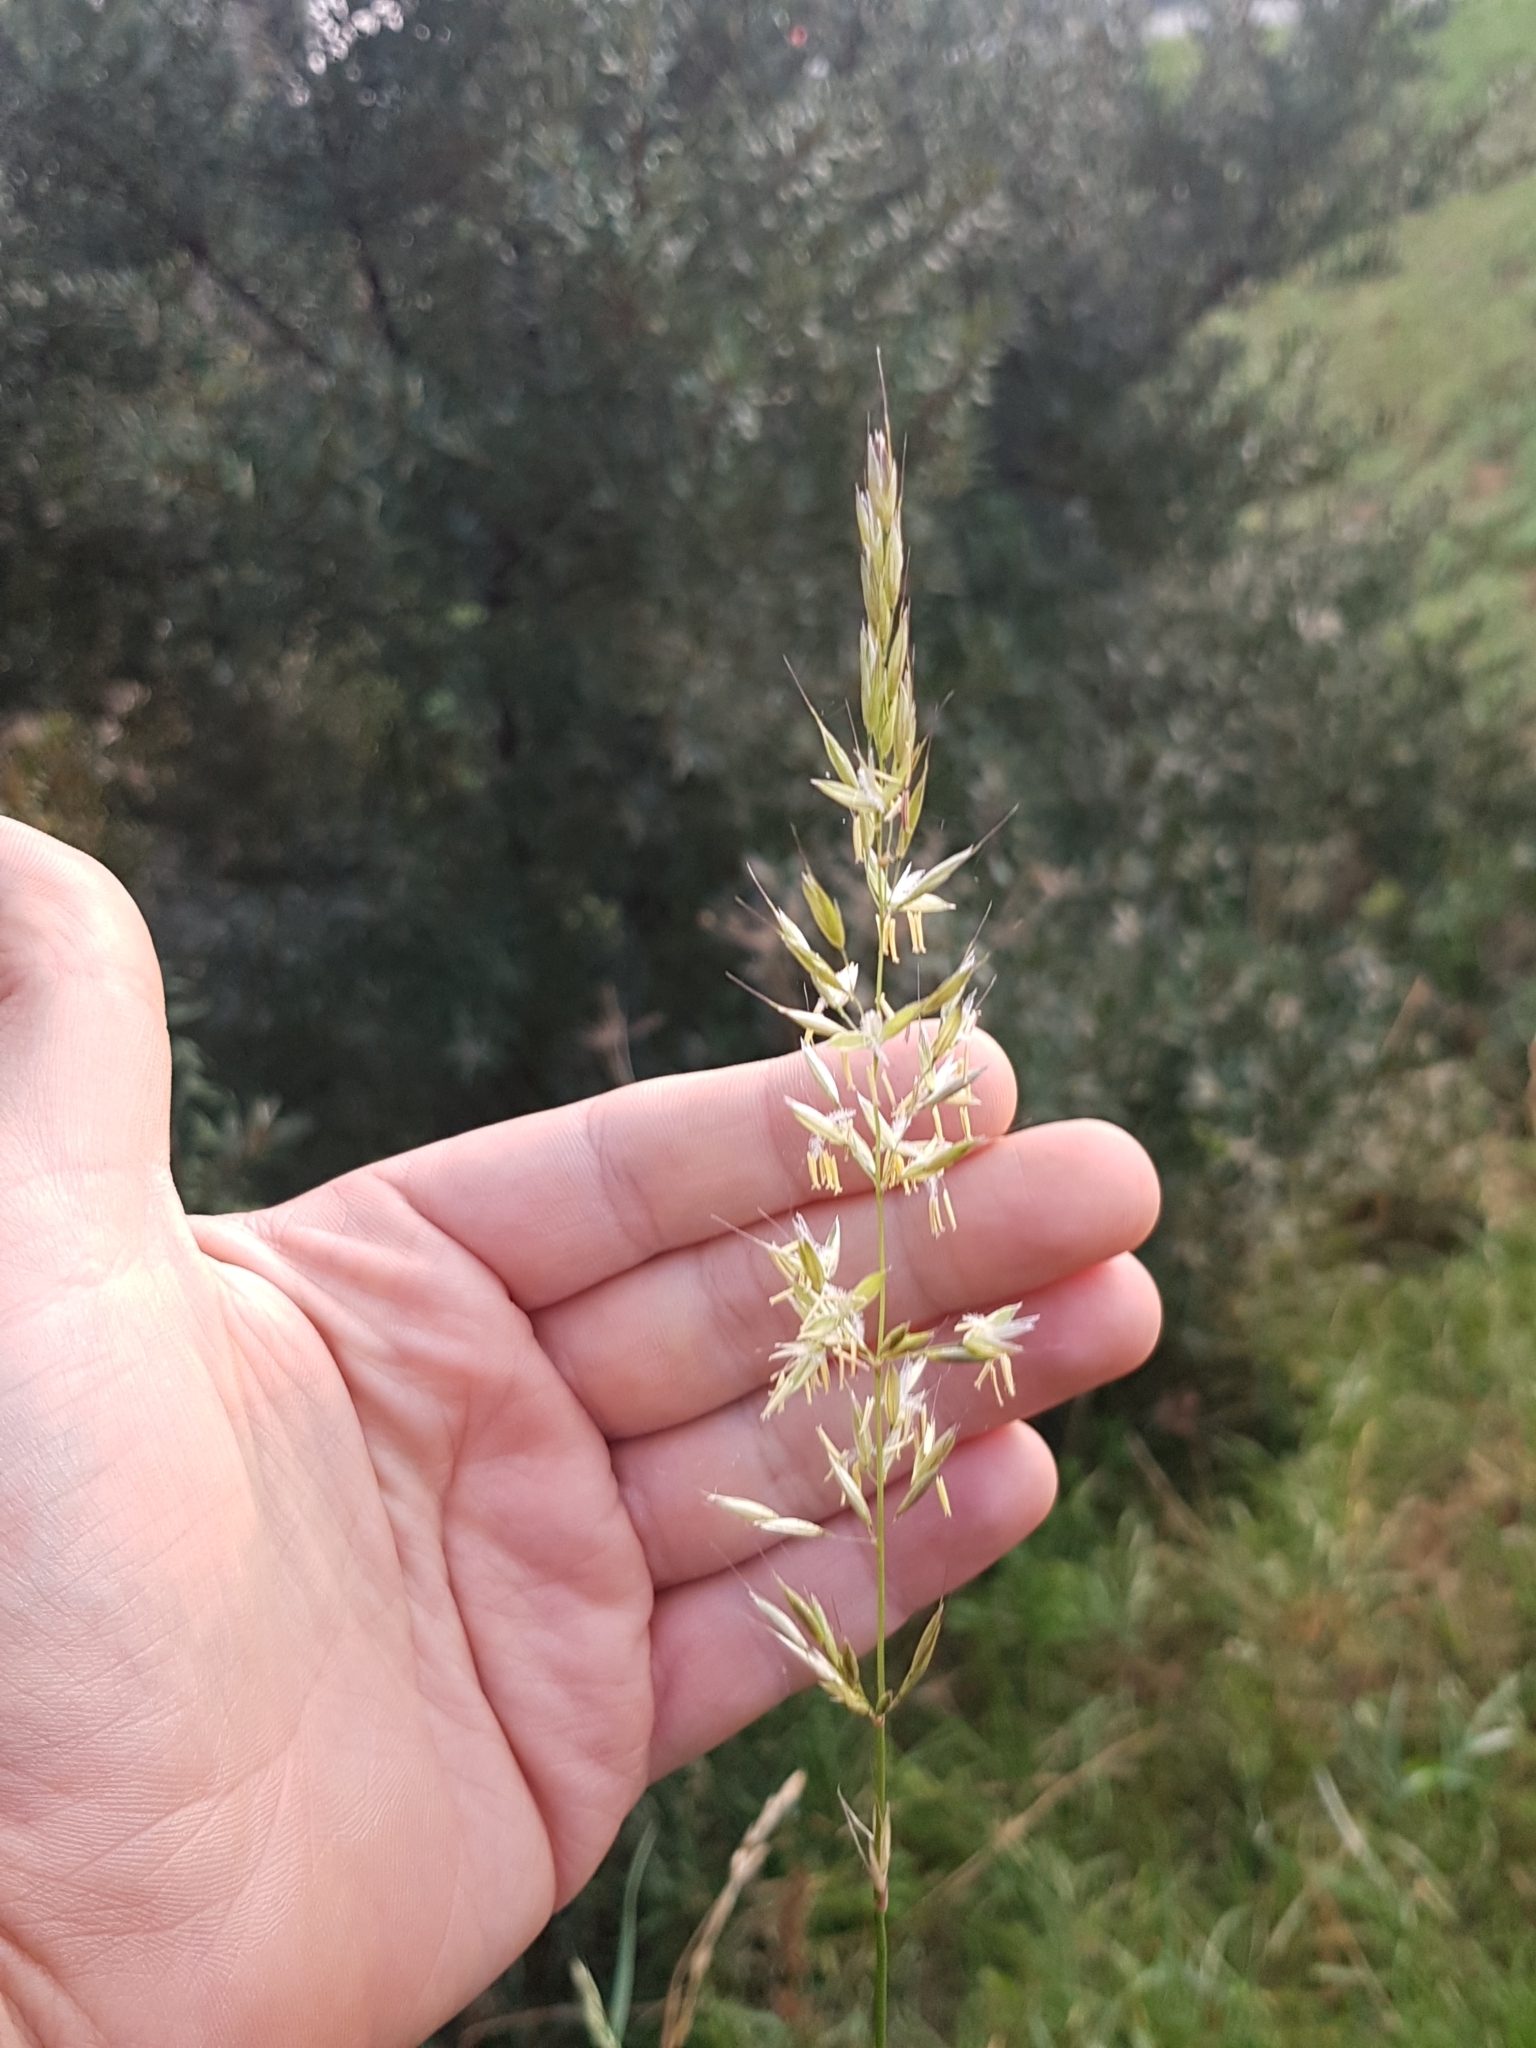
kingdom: Plantae
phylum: Tracheophyta
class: Liliopsida
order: Poales
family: Poaceae
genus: Arrhenatherum
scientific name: Arrhenatherum elatius
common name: Tall oatgrass
